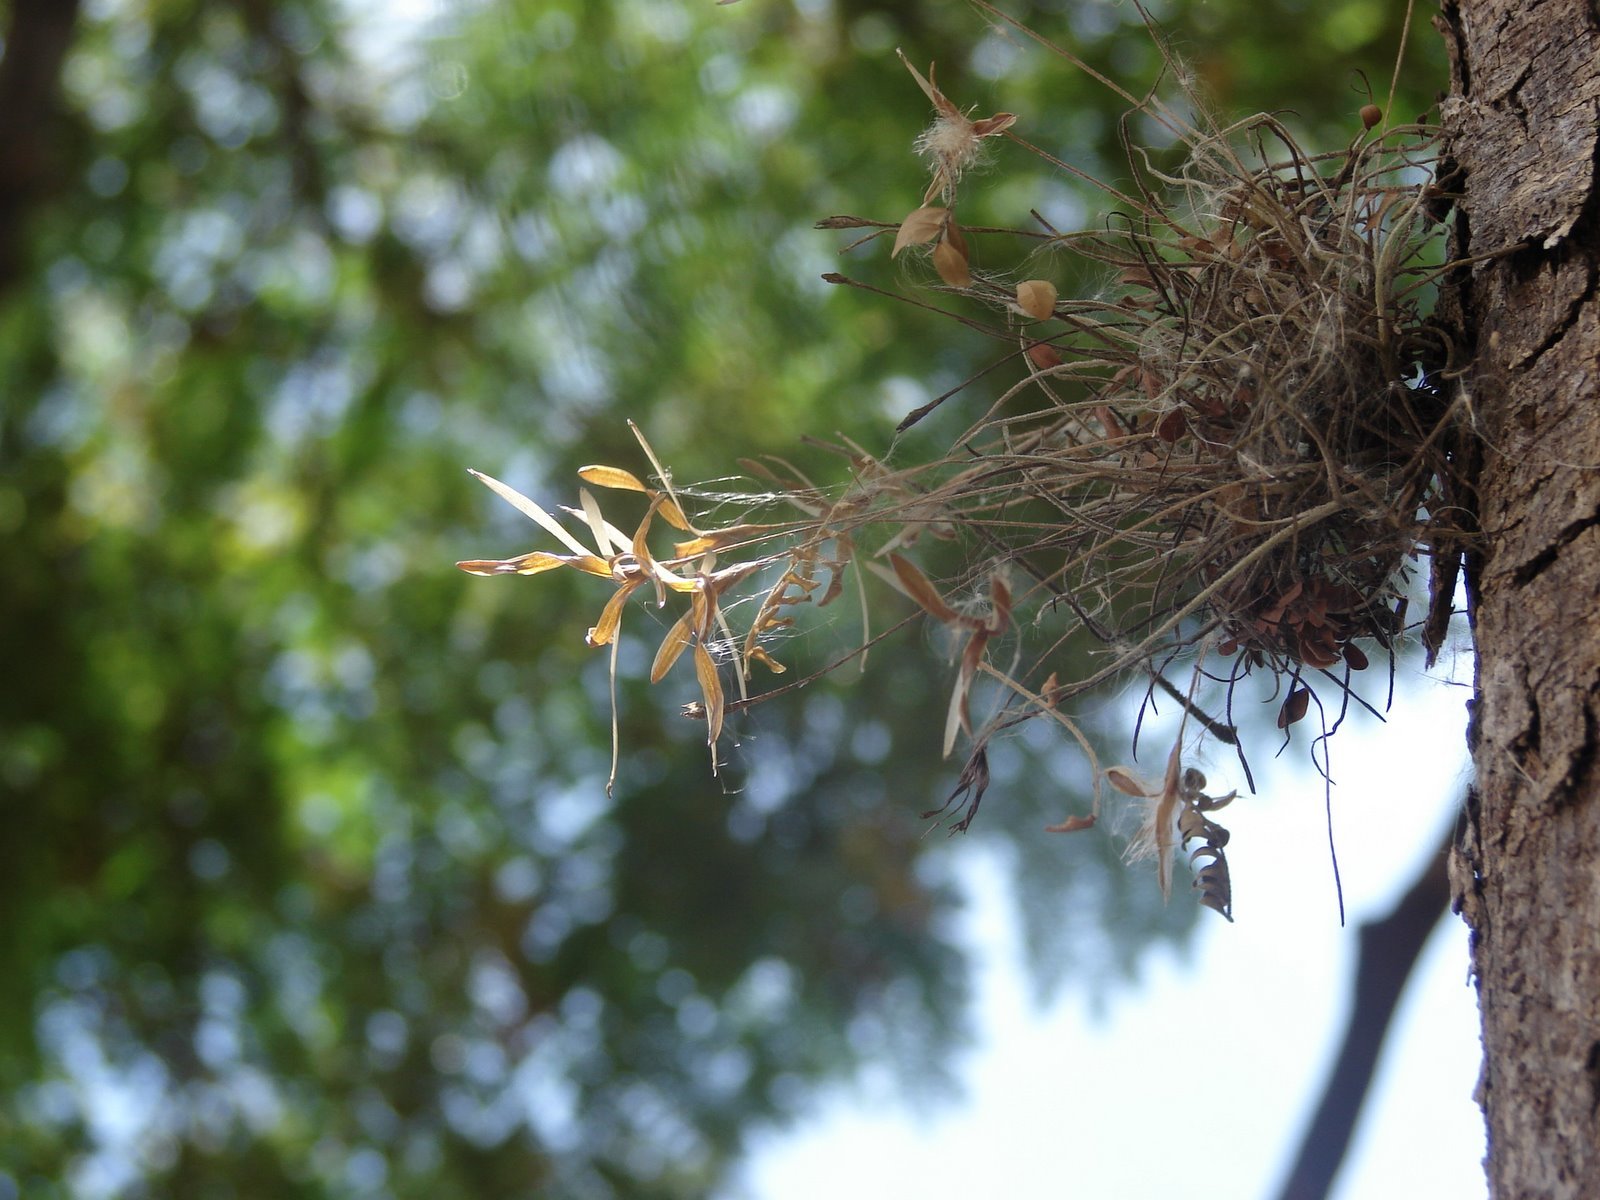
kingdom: Plantae
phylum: Tracheophyta
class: Liliopsida
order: Poales
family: Bromeliaceae
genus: Tillandsia
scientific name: Tillandsia recurvata
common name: Small ballmoss
